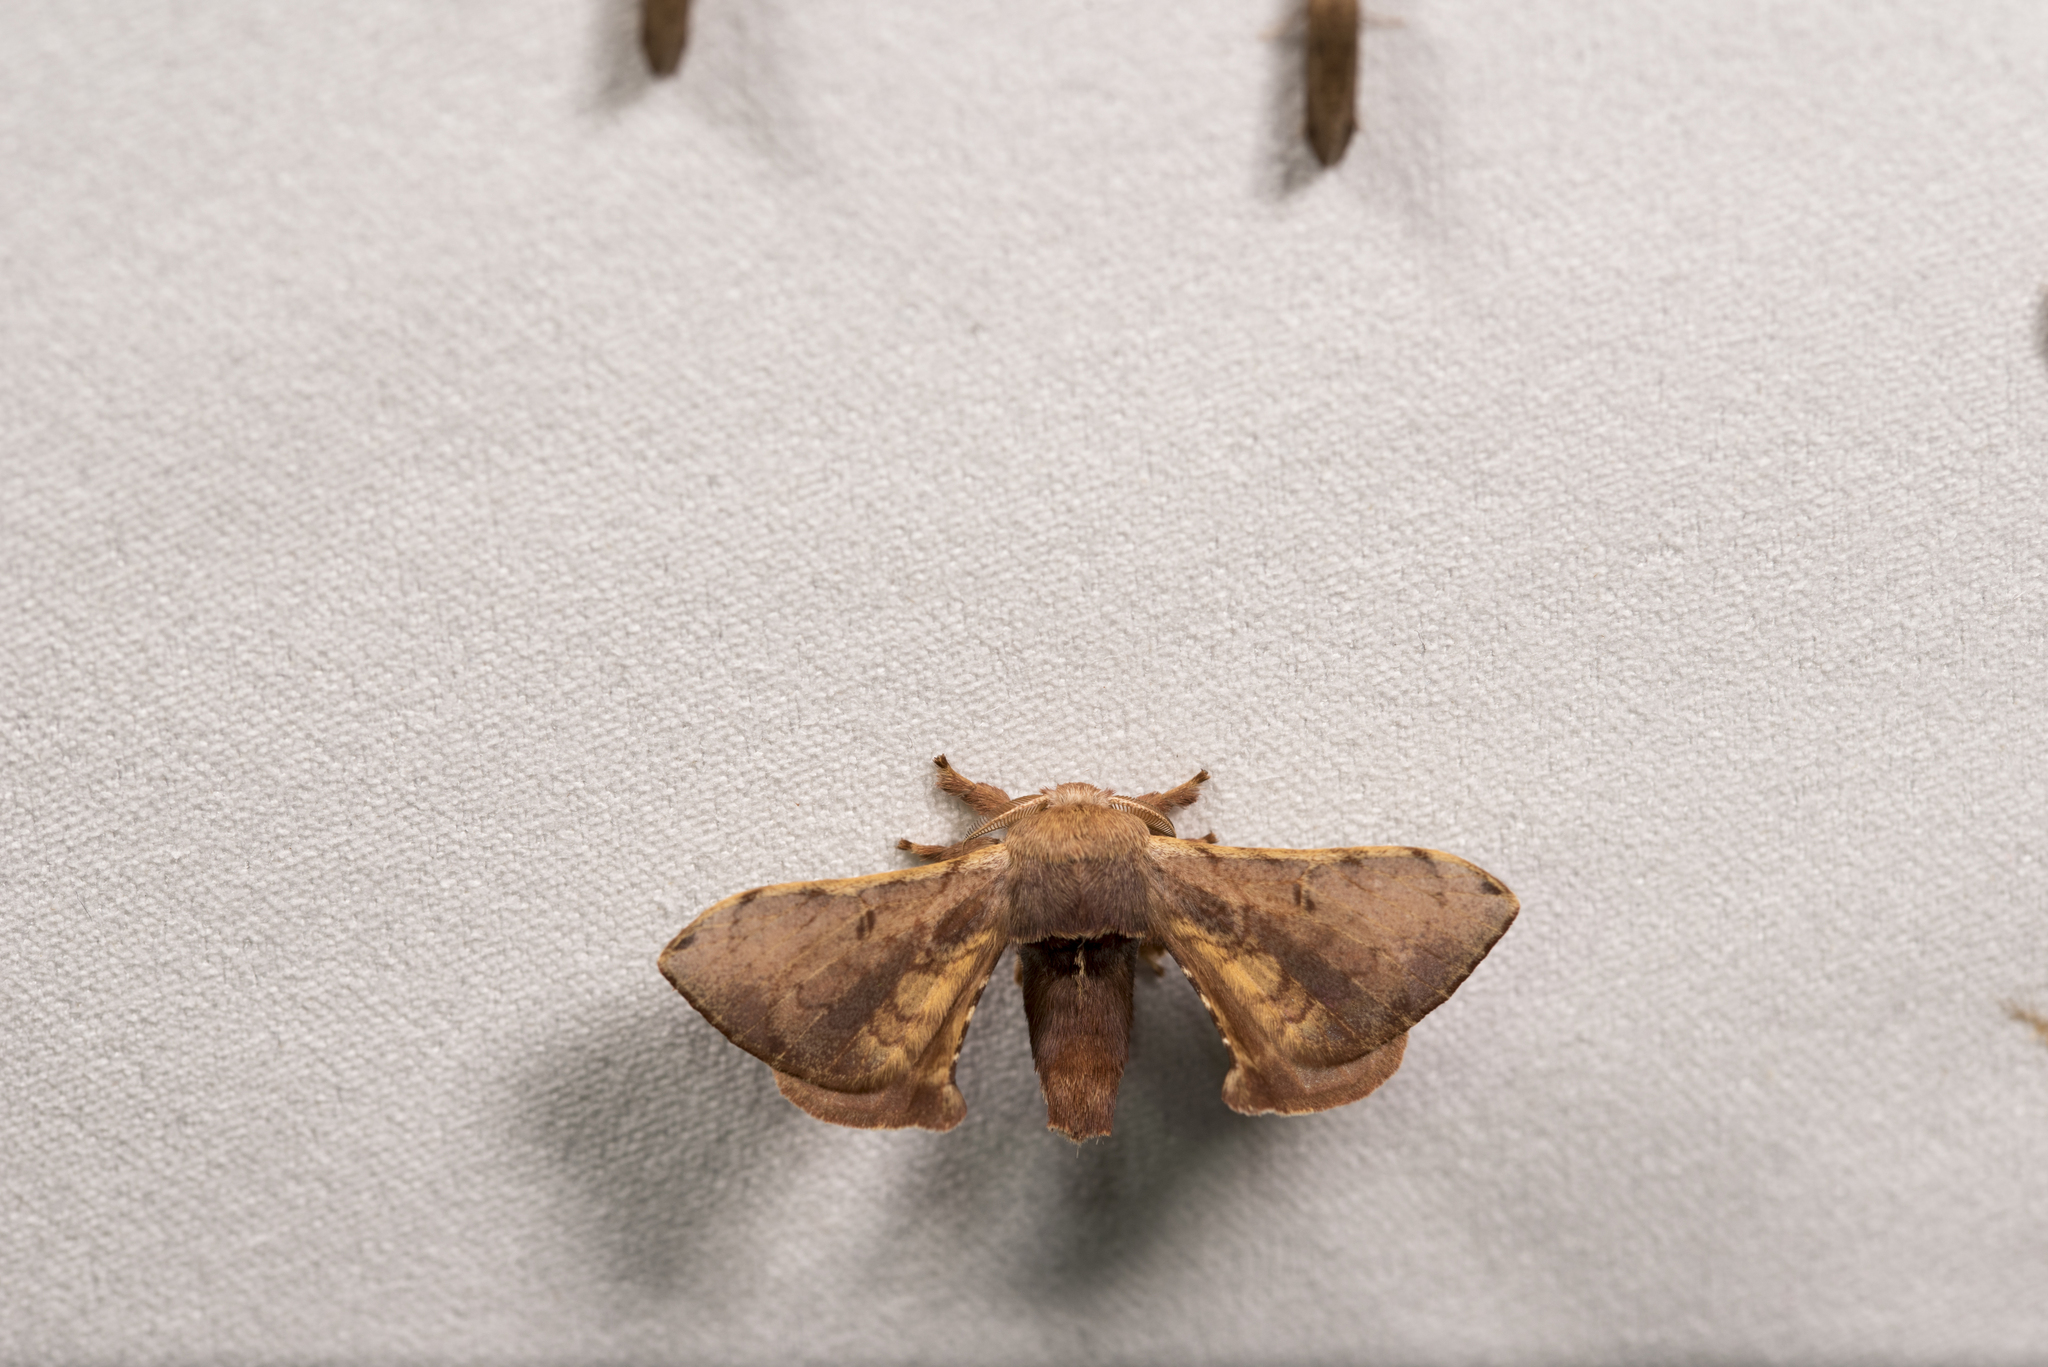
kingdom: Animalia
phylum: Arthropoda
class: Insecta
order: Lepidoptera
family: Bombycidae
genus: Triuncina
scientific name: Triuncina brunnea
